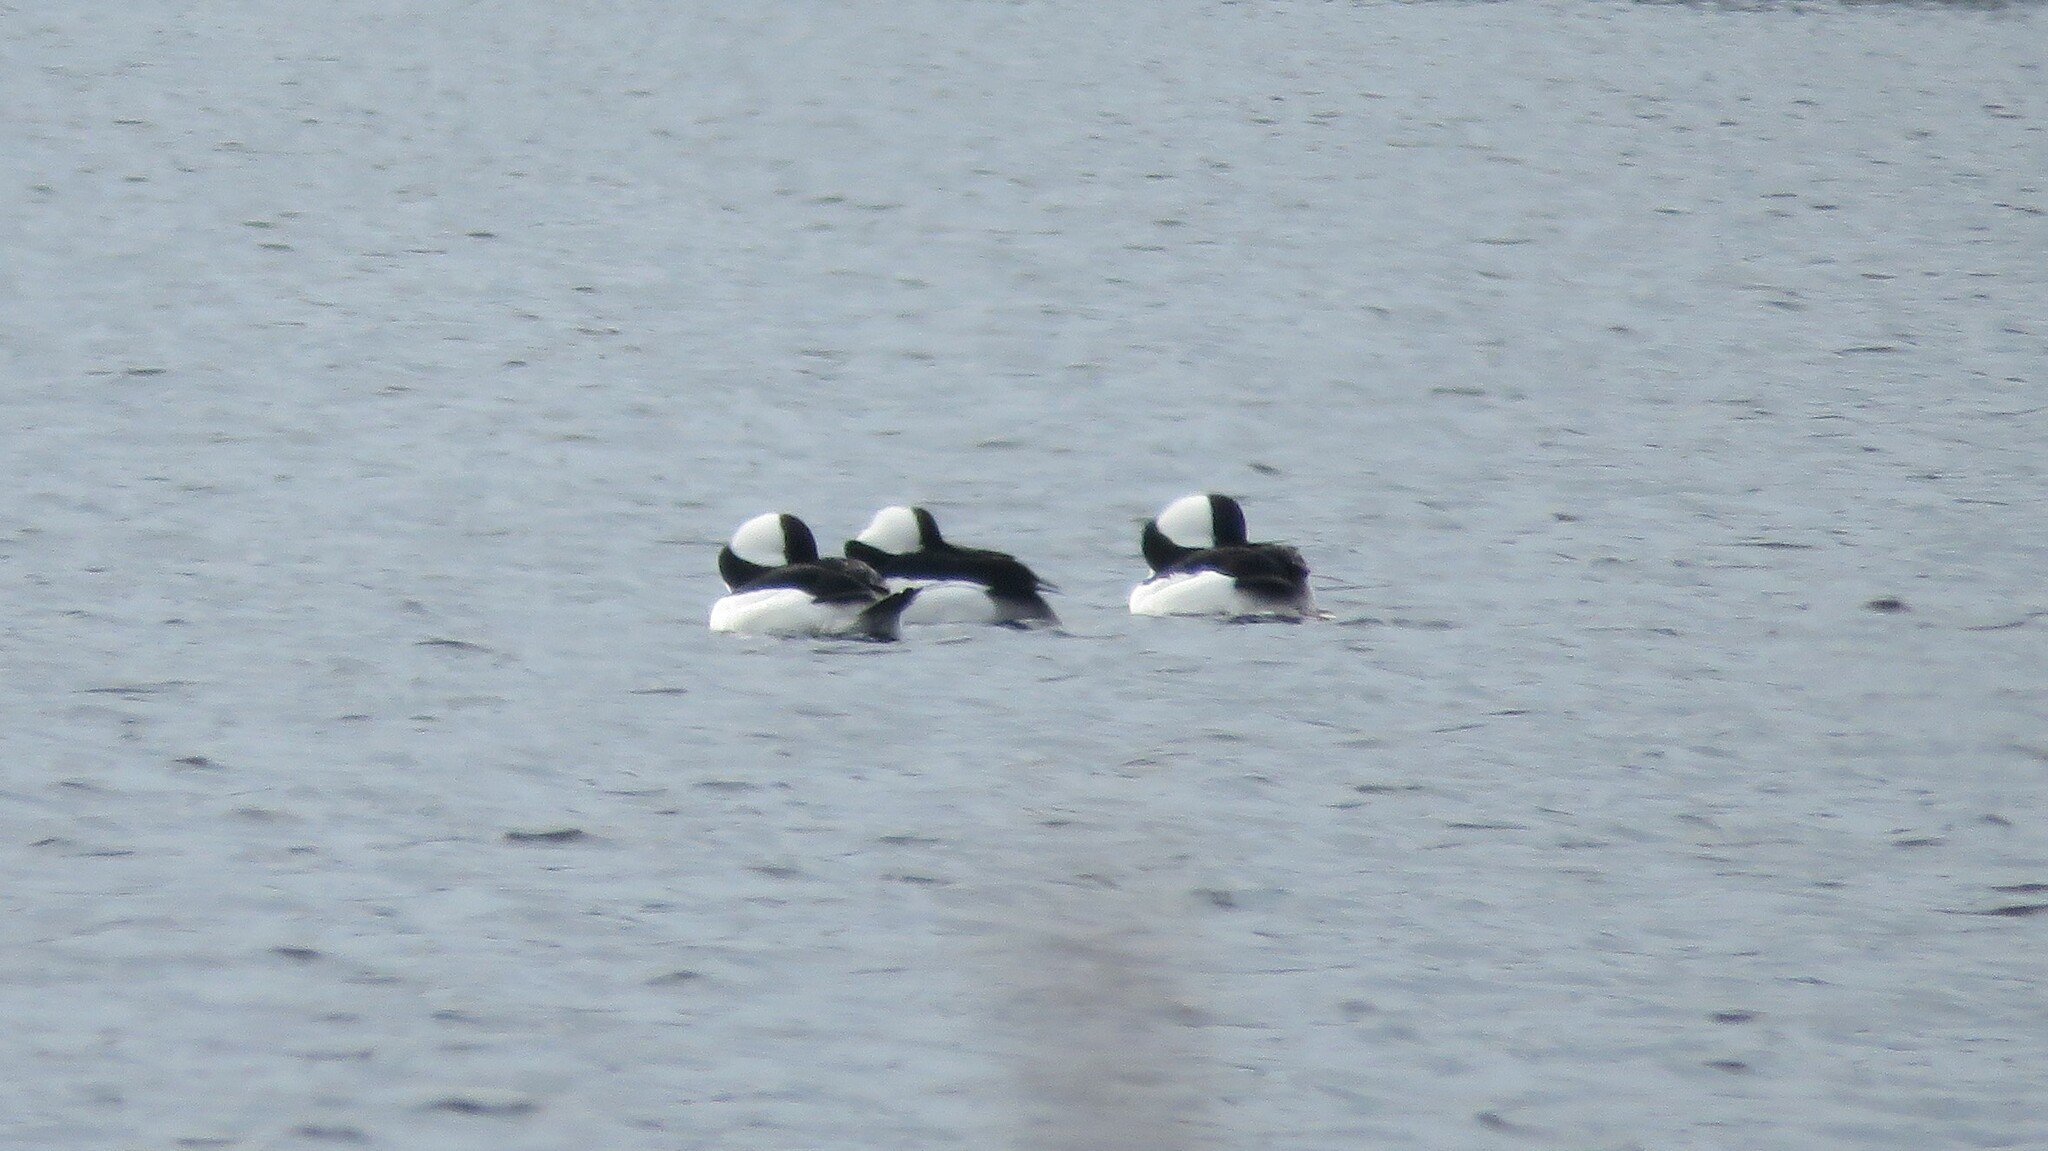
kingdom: Animalia
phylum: Chordata
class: Aves
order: Anseriformes
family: Anatidae
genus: Bucephala
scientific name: Bucephala albeola
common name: Bufflehead
